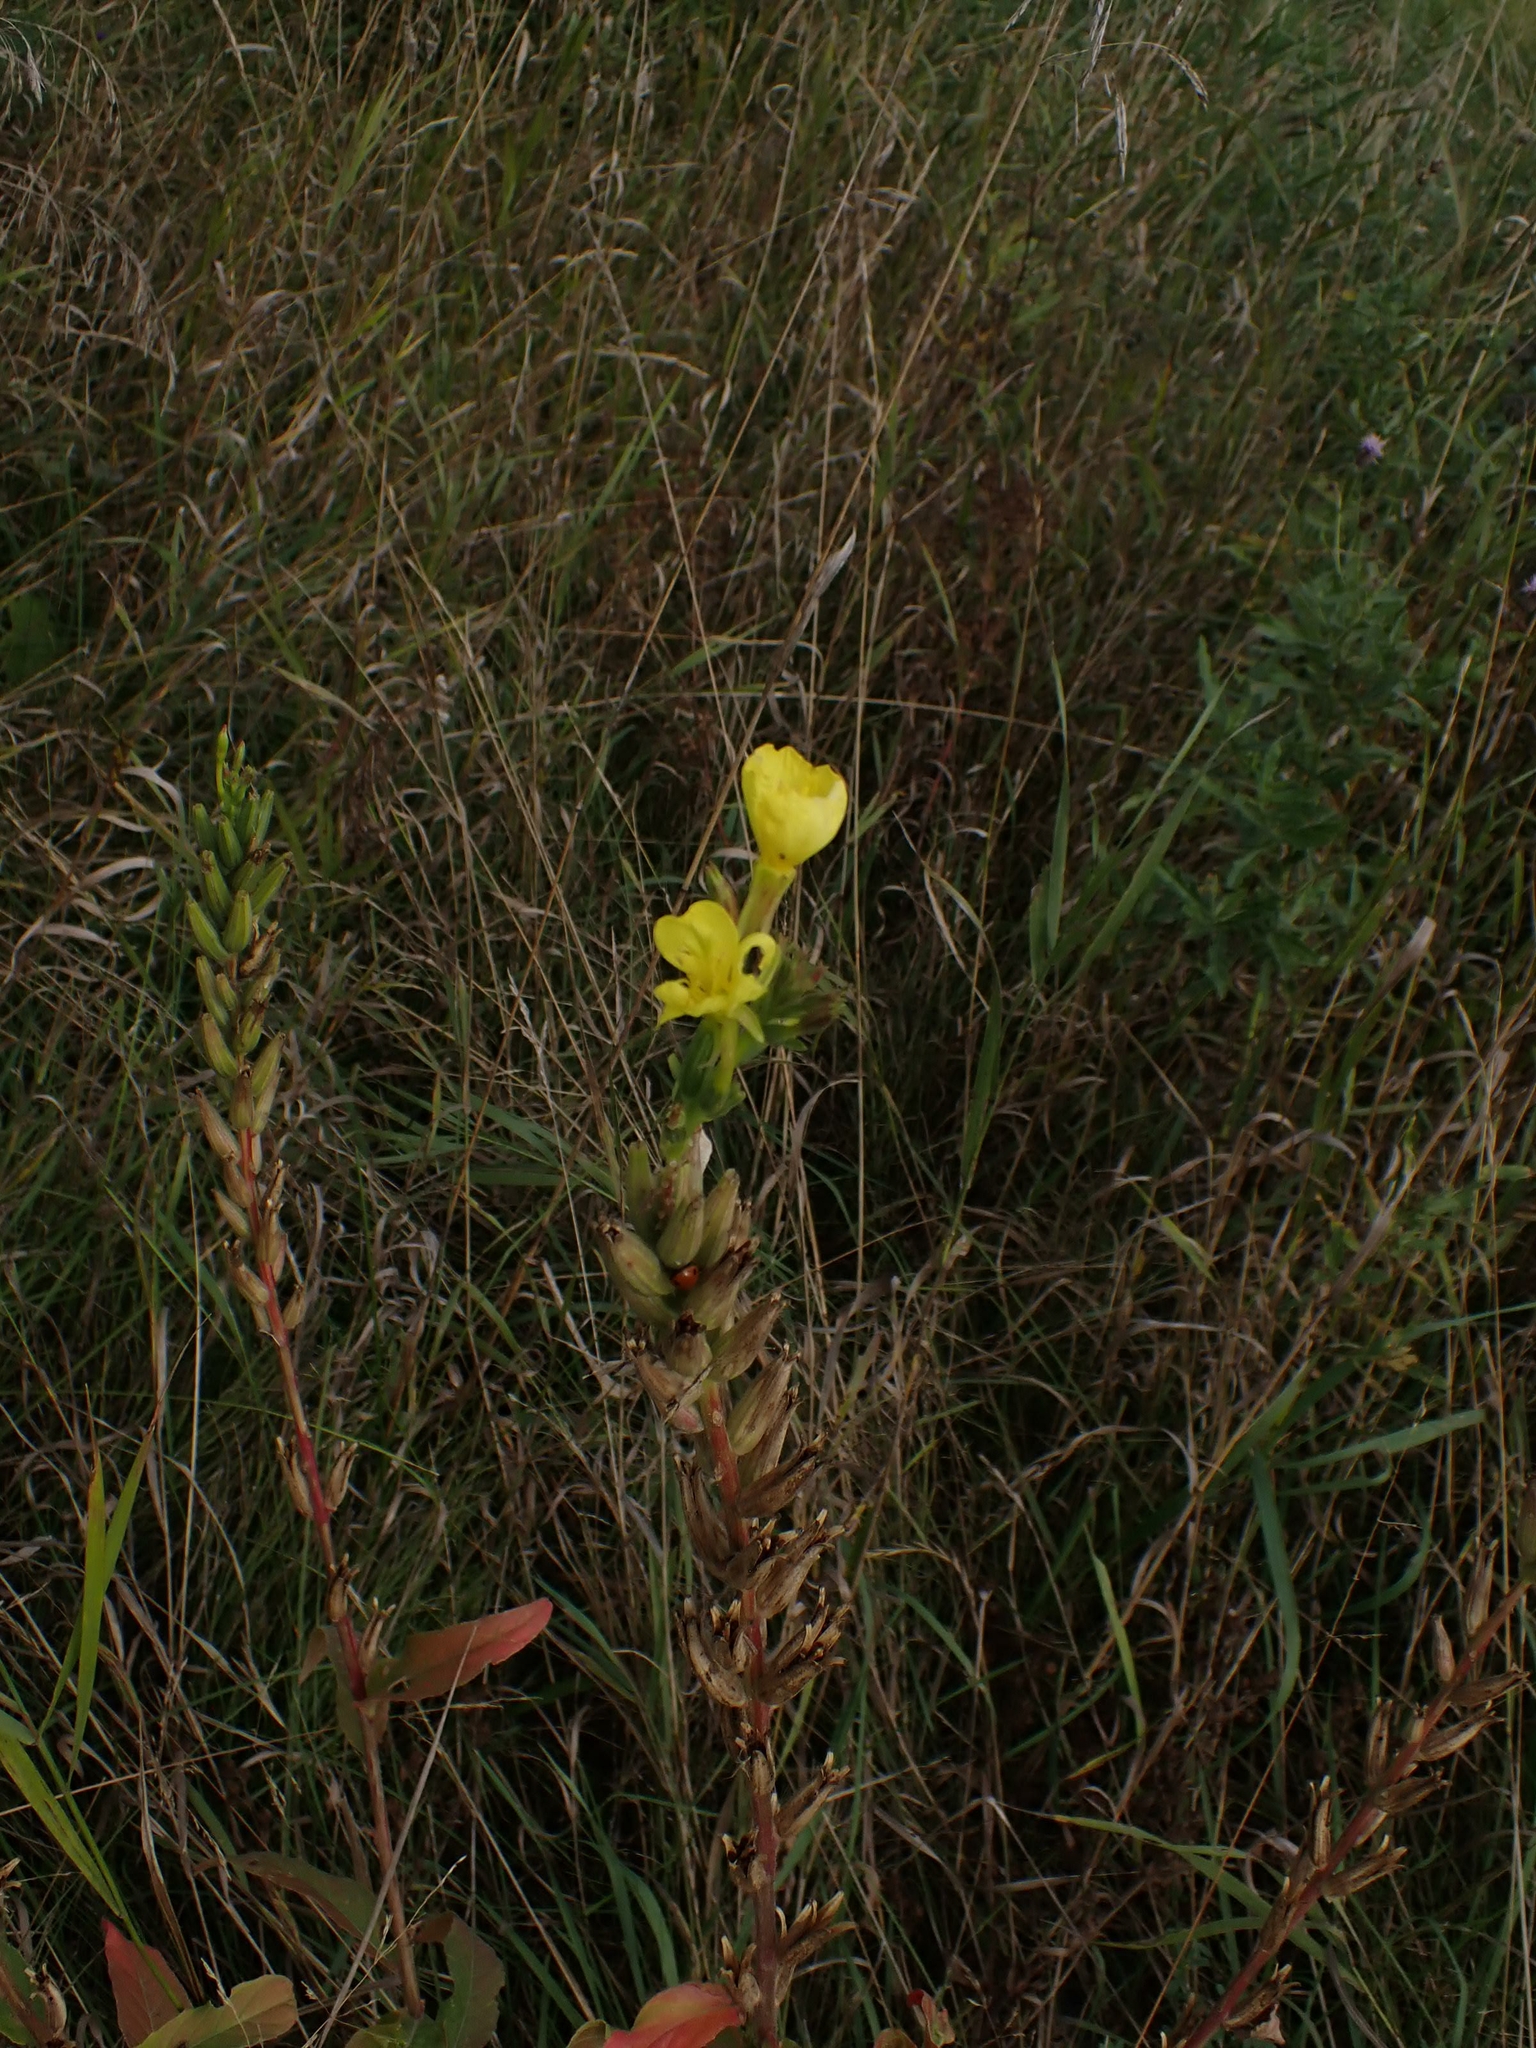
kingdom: Plantae
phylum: Tracheophyta
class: Magnoliopsida
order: Myrtales
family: Onagraceae
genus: Oenothera
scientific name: Oenothera biennis
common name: Common evening-primrose
